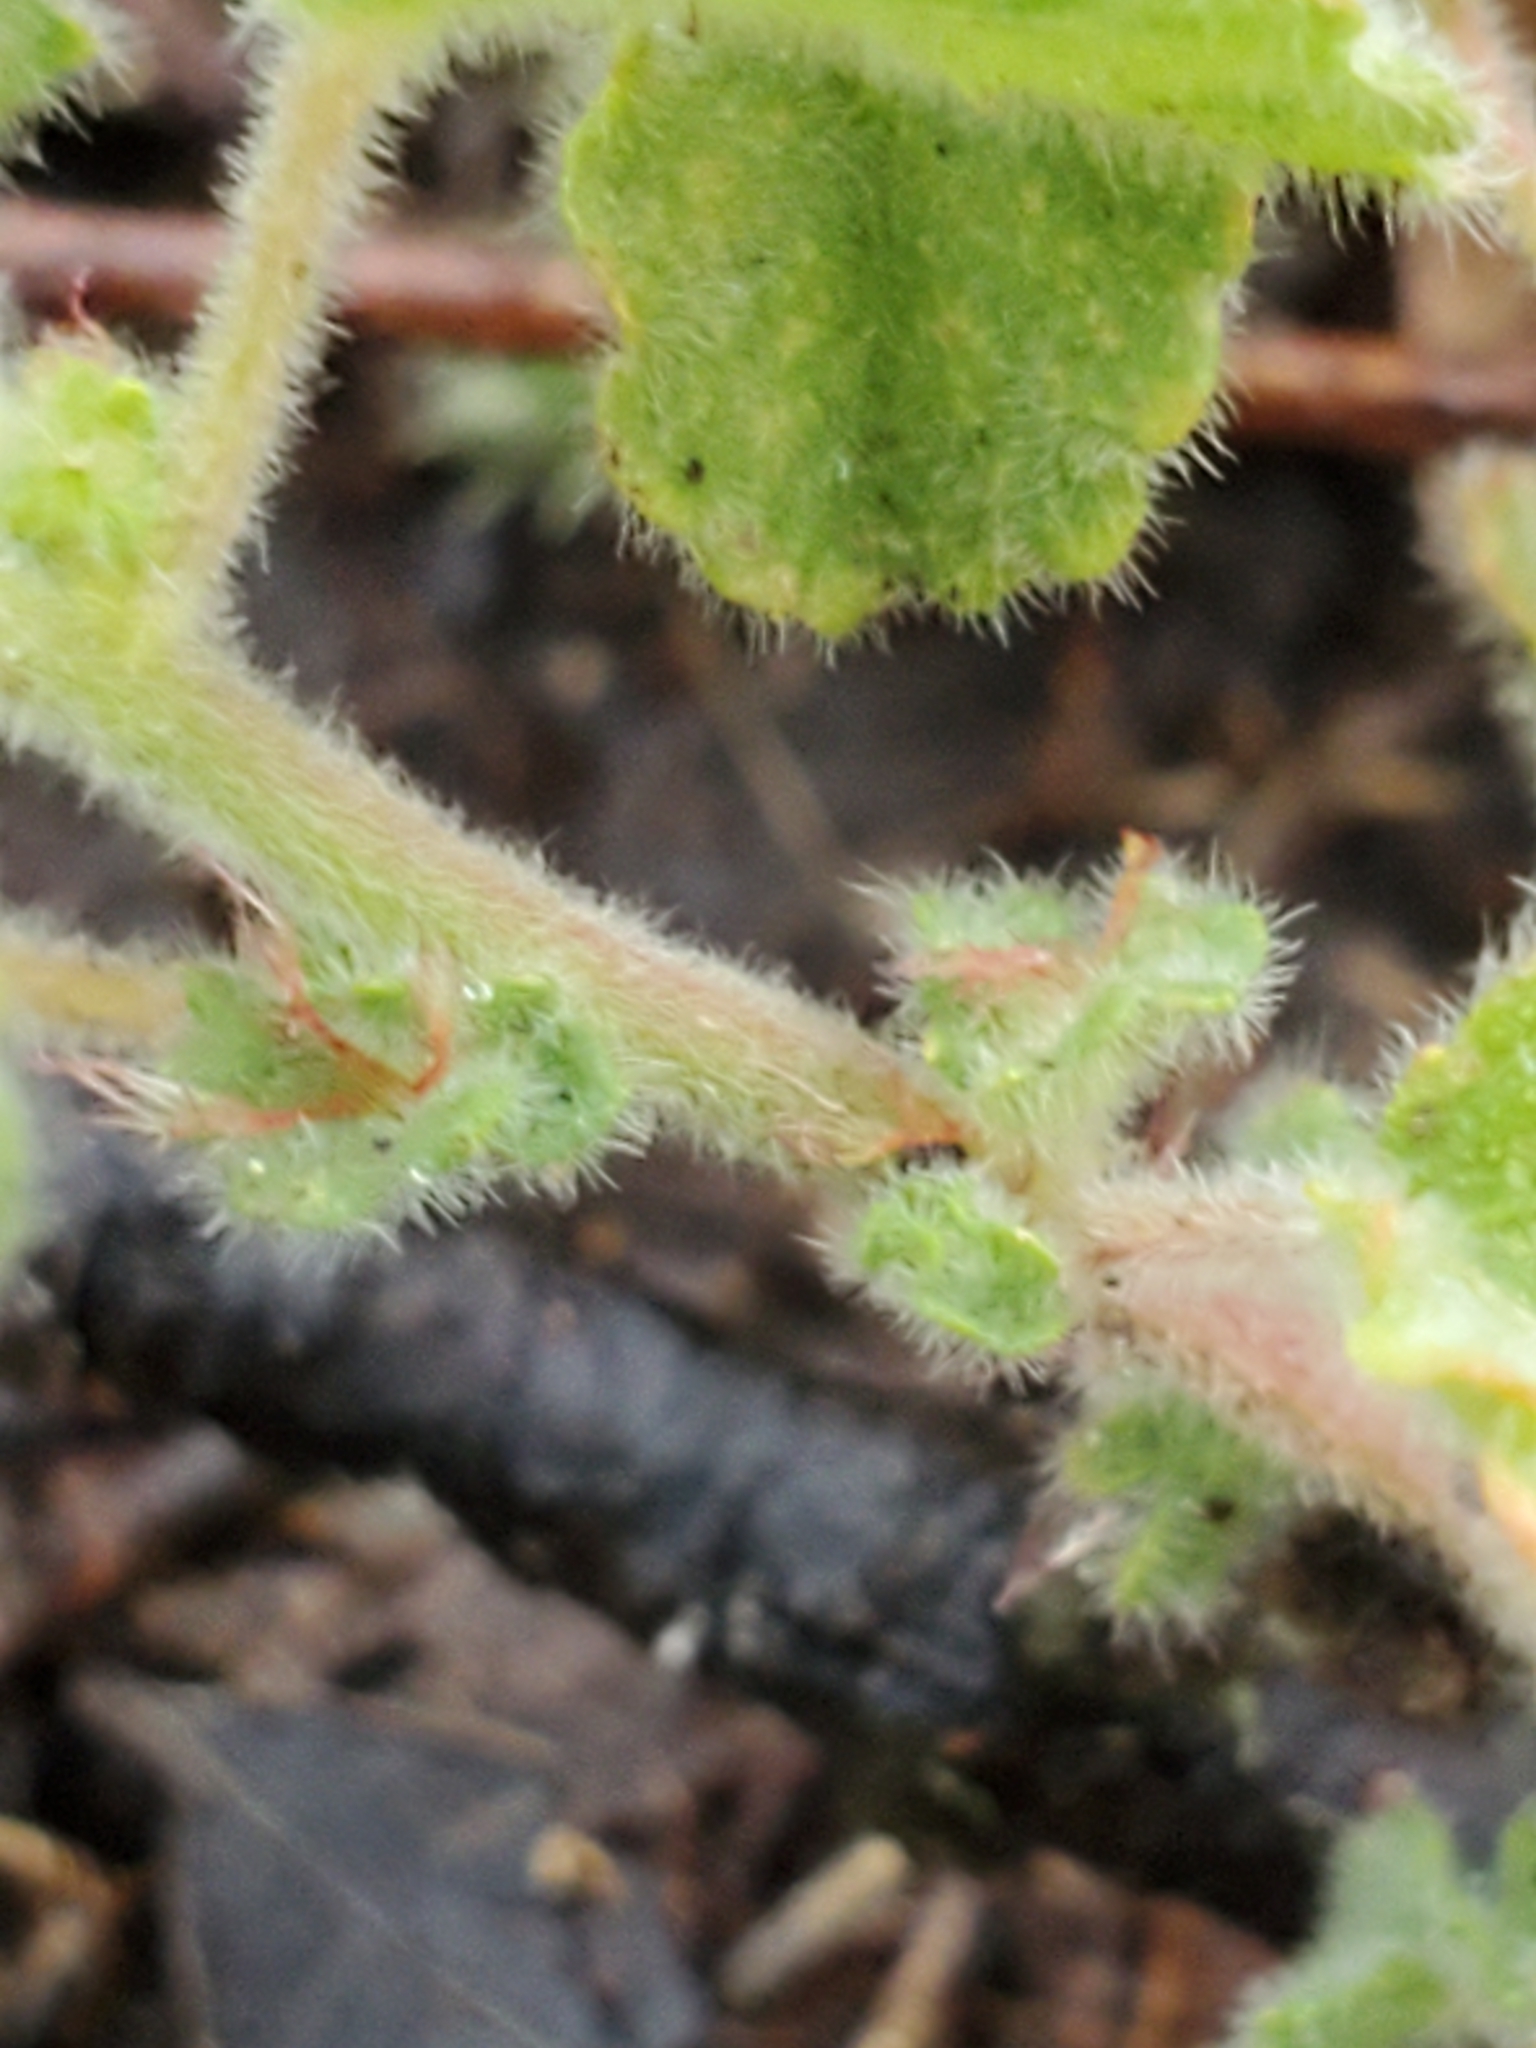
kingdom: Plantae
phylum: Tracheophyta
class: Magnoliopsida
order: Malpighiales
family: Euphorbiaceae
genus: Acalypha
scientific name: Acalypha monostachya
